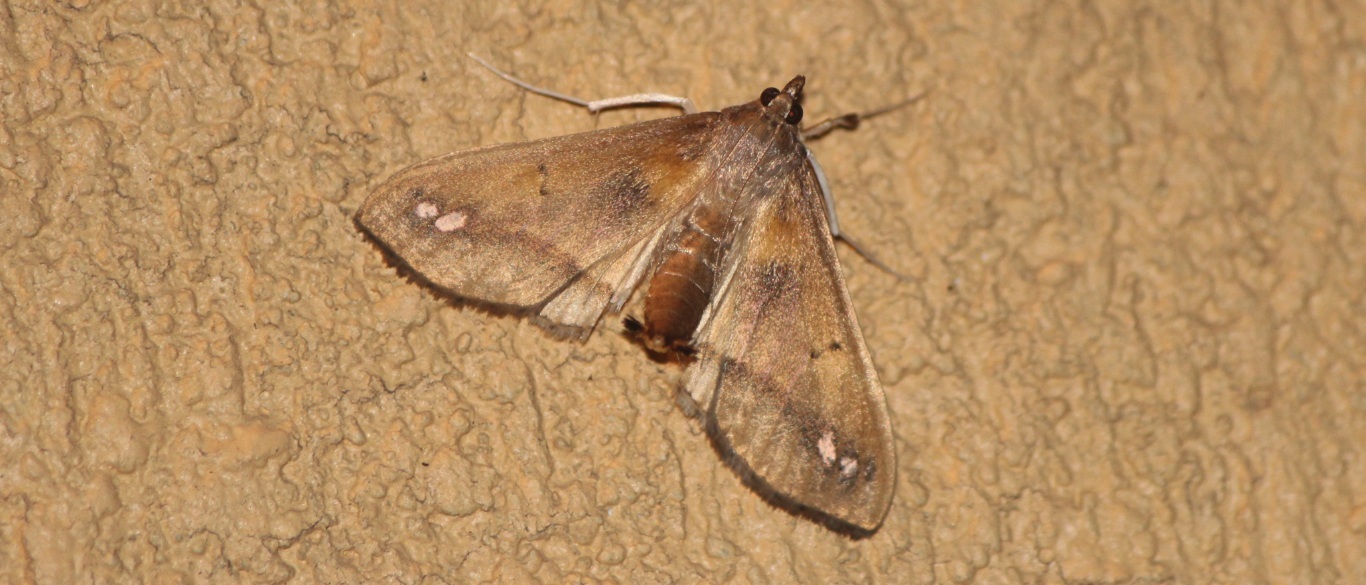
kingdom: Animalia
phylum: Arthropoda
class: Insecta
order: Lepidoptera
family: Crambidae
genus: Diaphania
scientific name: Diaphania
